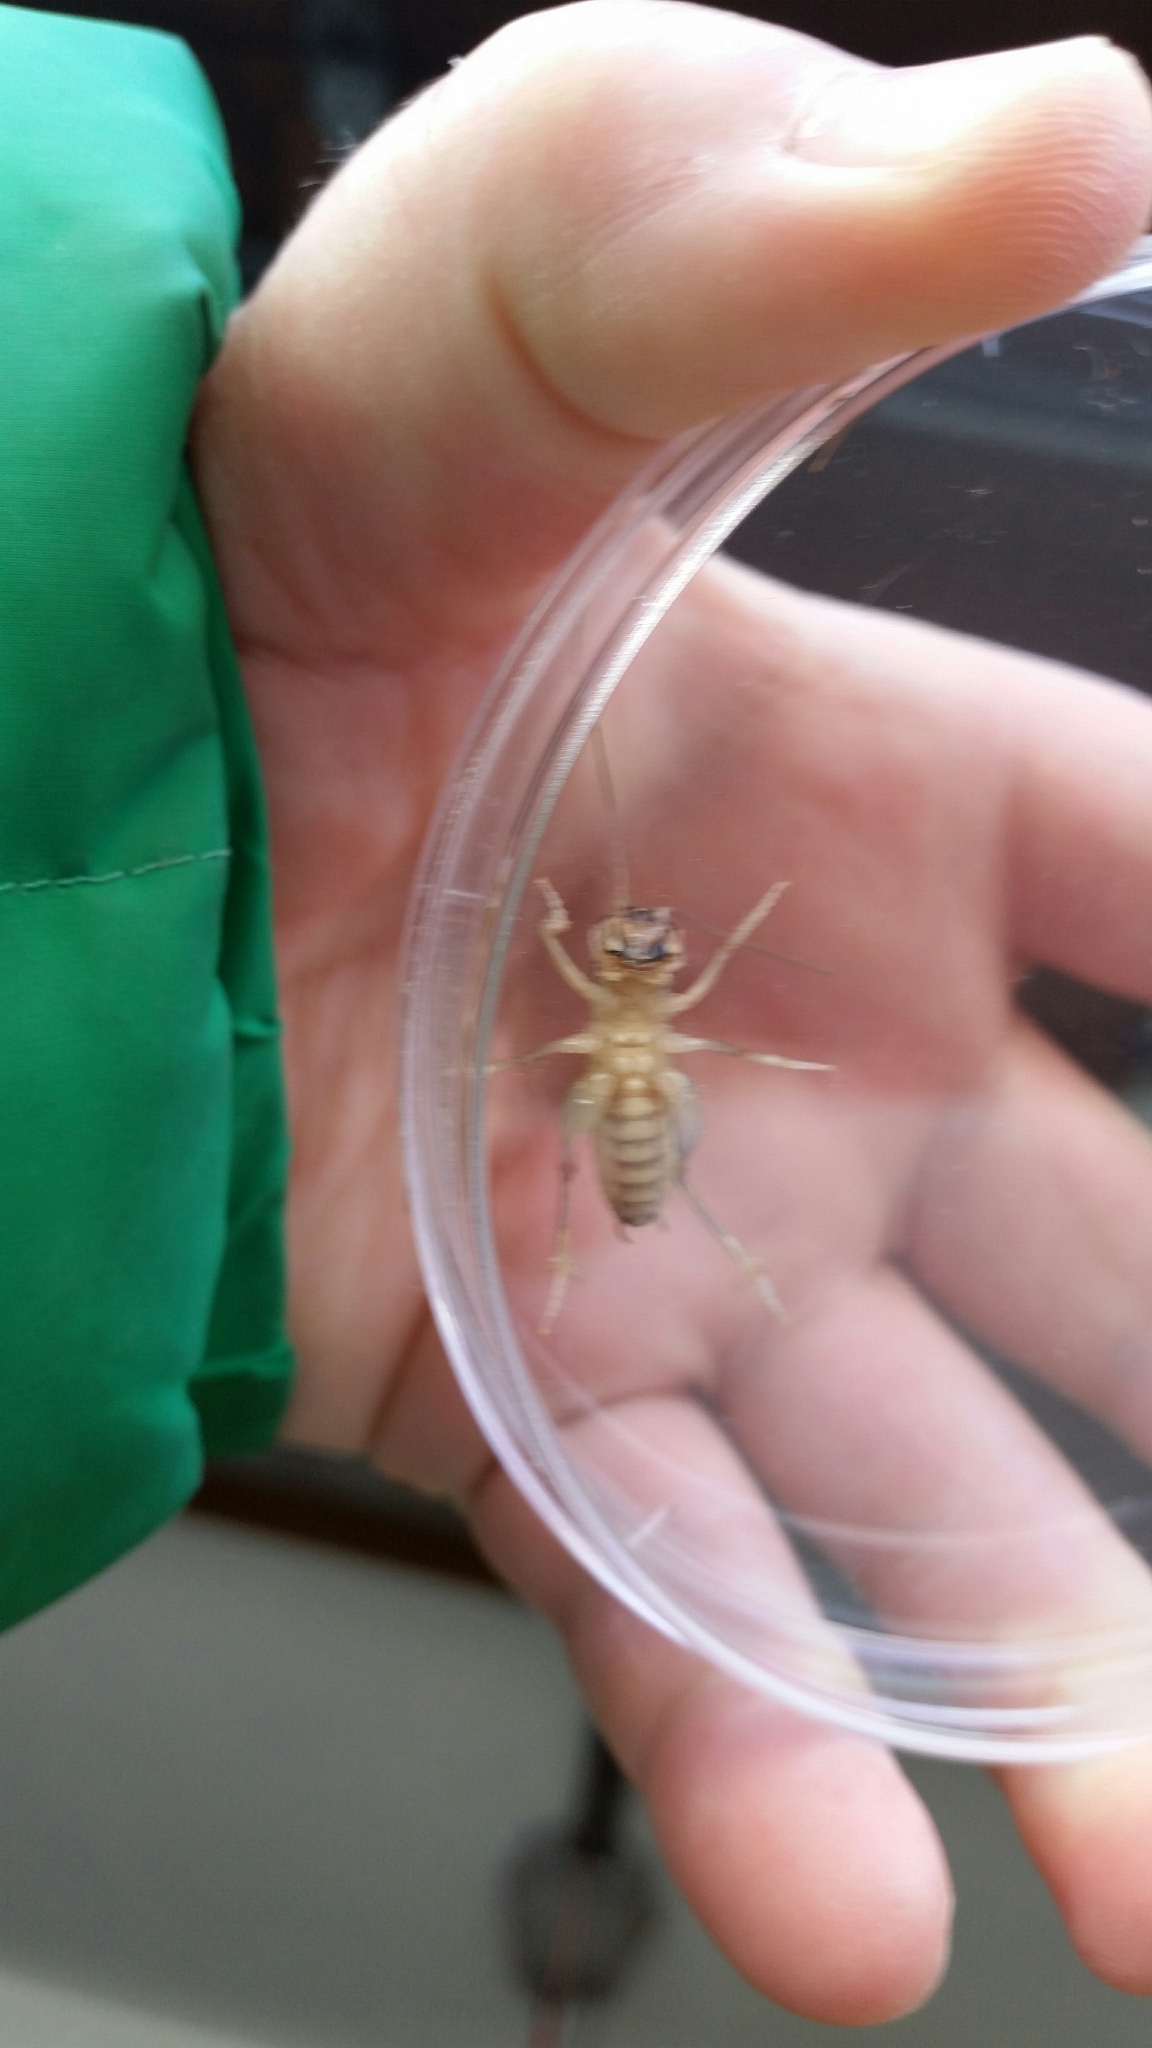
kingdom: Animalia
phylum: Arthropoda
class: Insecta
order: Orthoptera
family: Anostostomatidae
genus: Hemideina
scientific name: Hemideina crassidens
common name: Wellington tree weta
